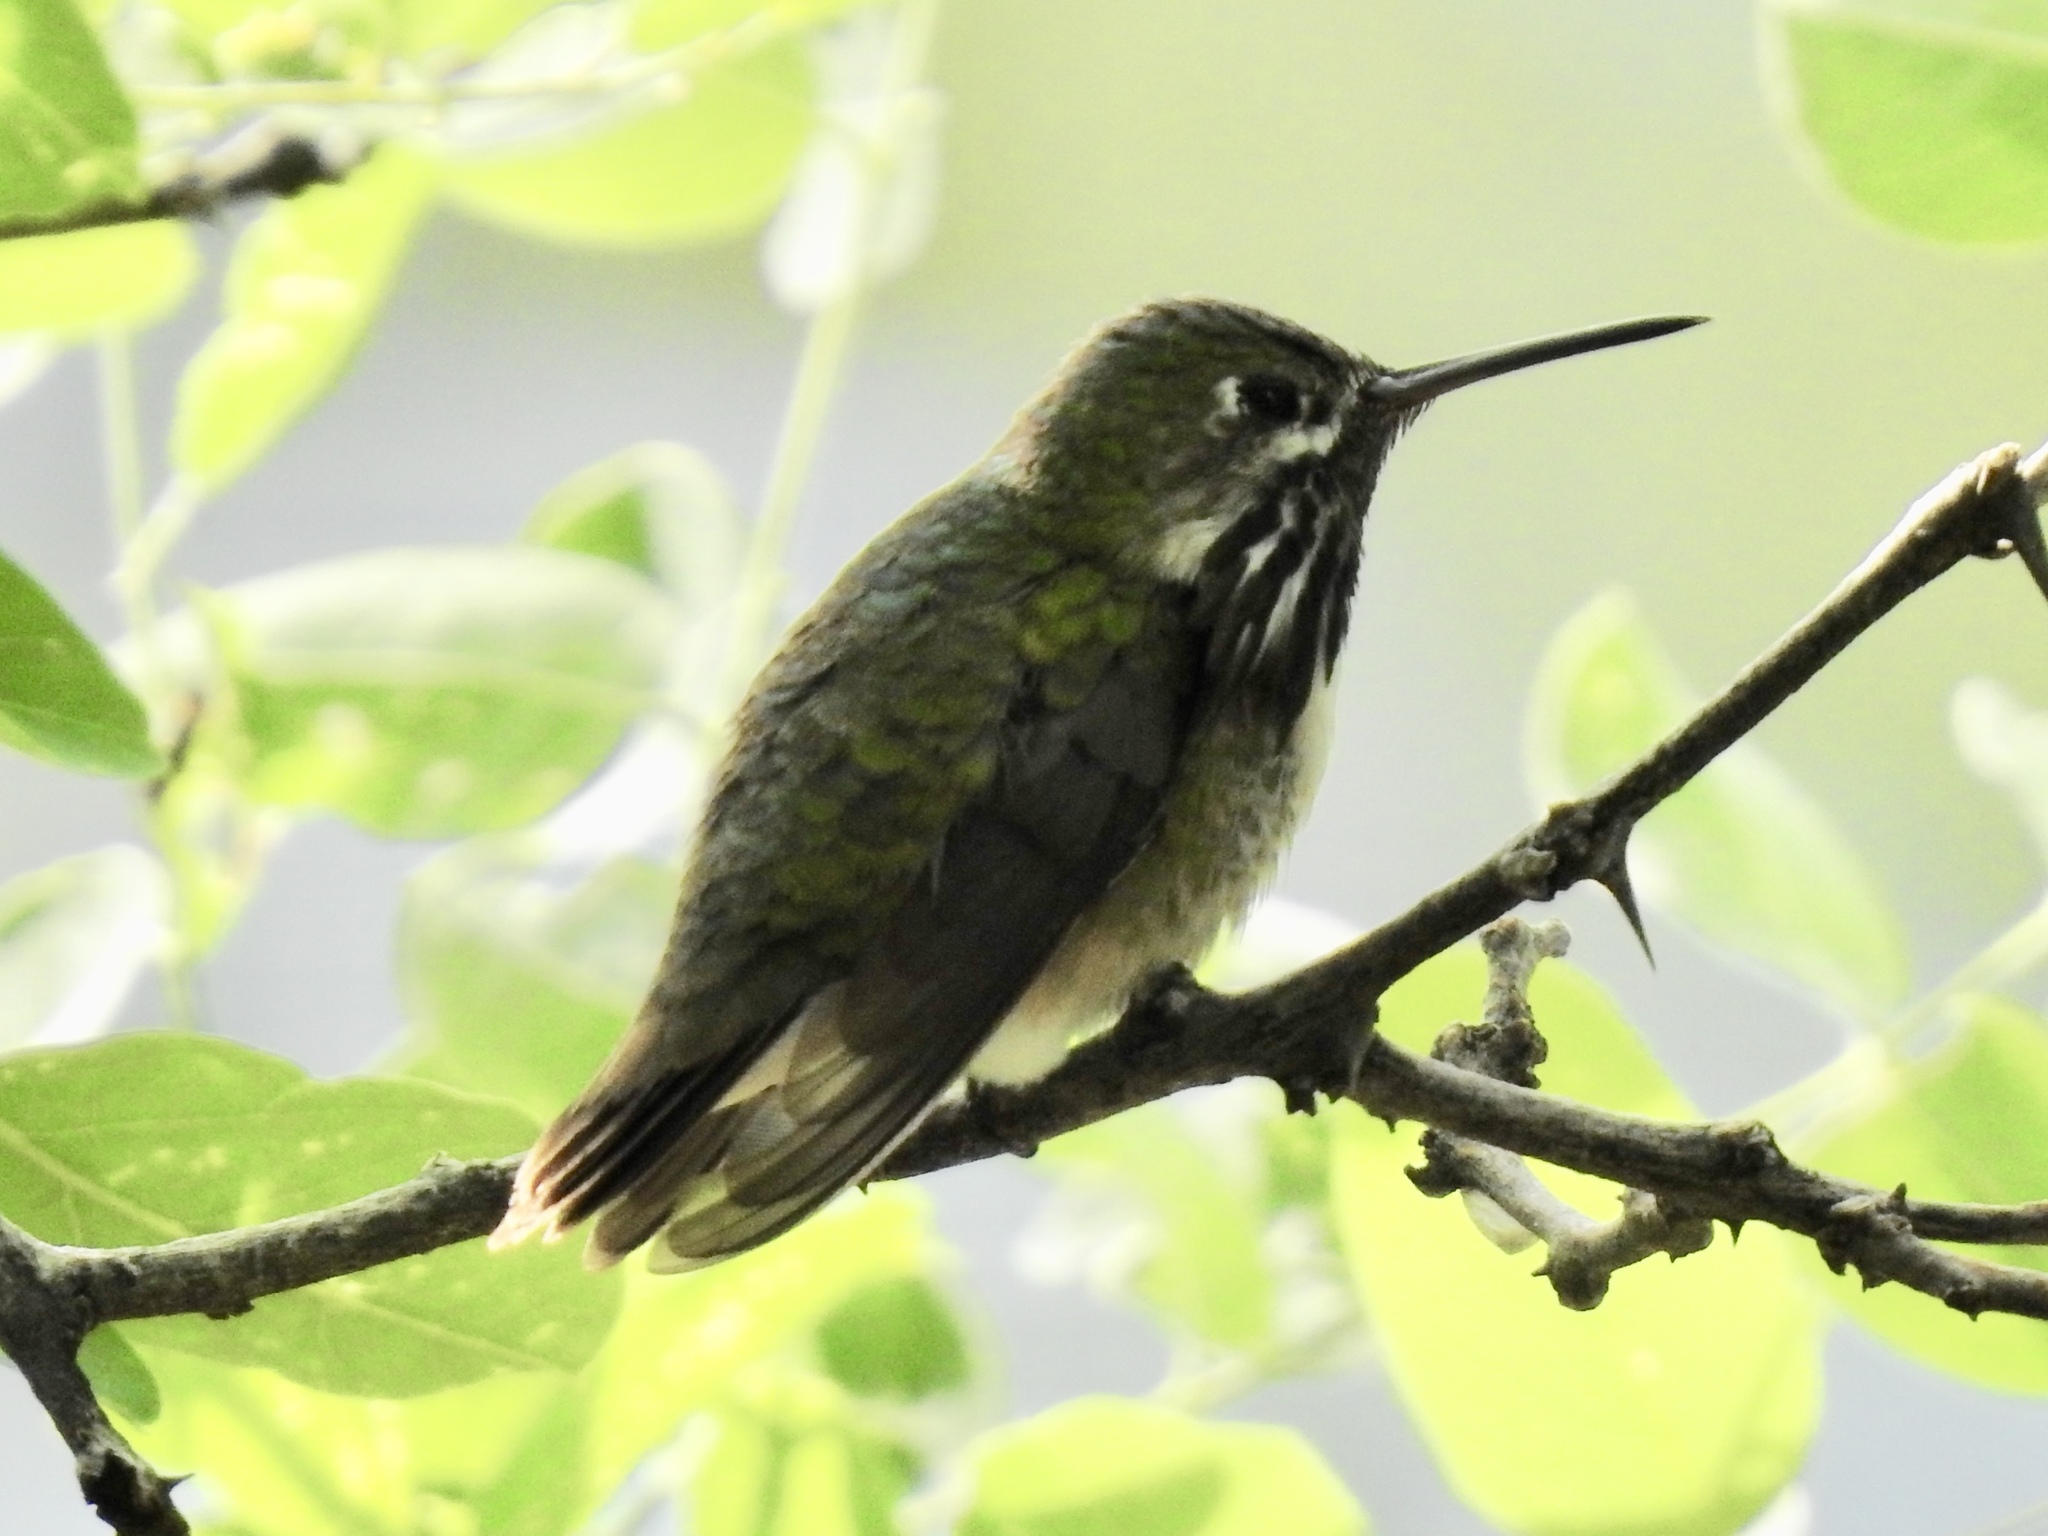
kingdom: Animalia
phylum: Chordata
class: Aves
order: Apodiformes
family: Trochilidae
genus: Selasphorus
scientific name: Selasphorus calliope
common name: Calliope hummingbird
